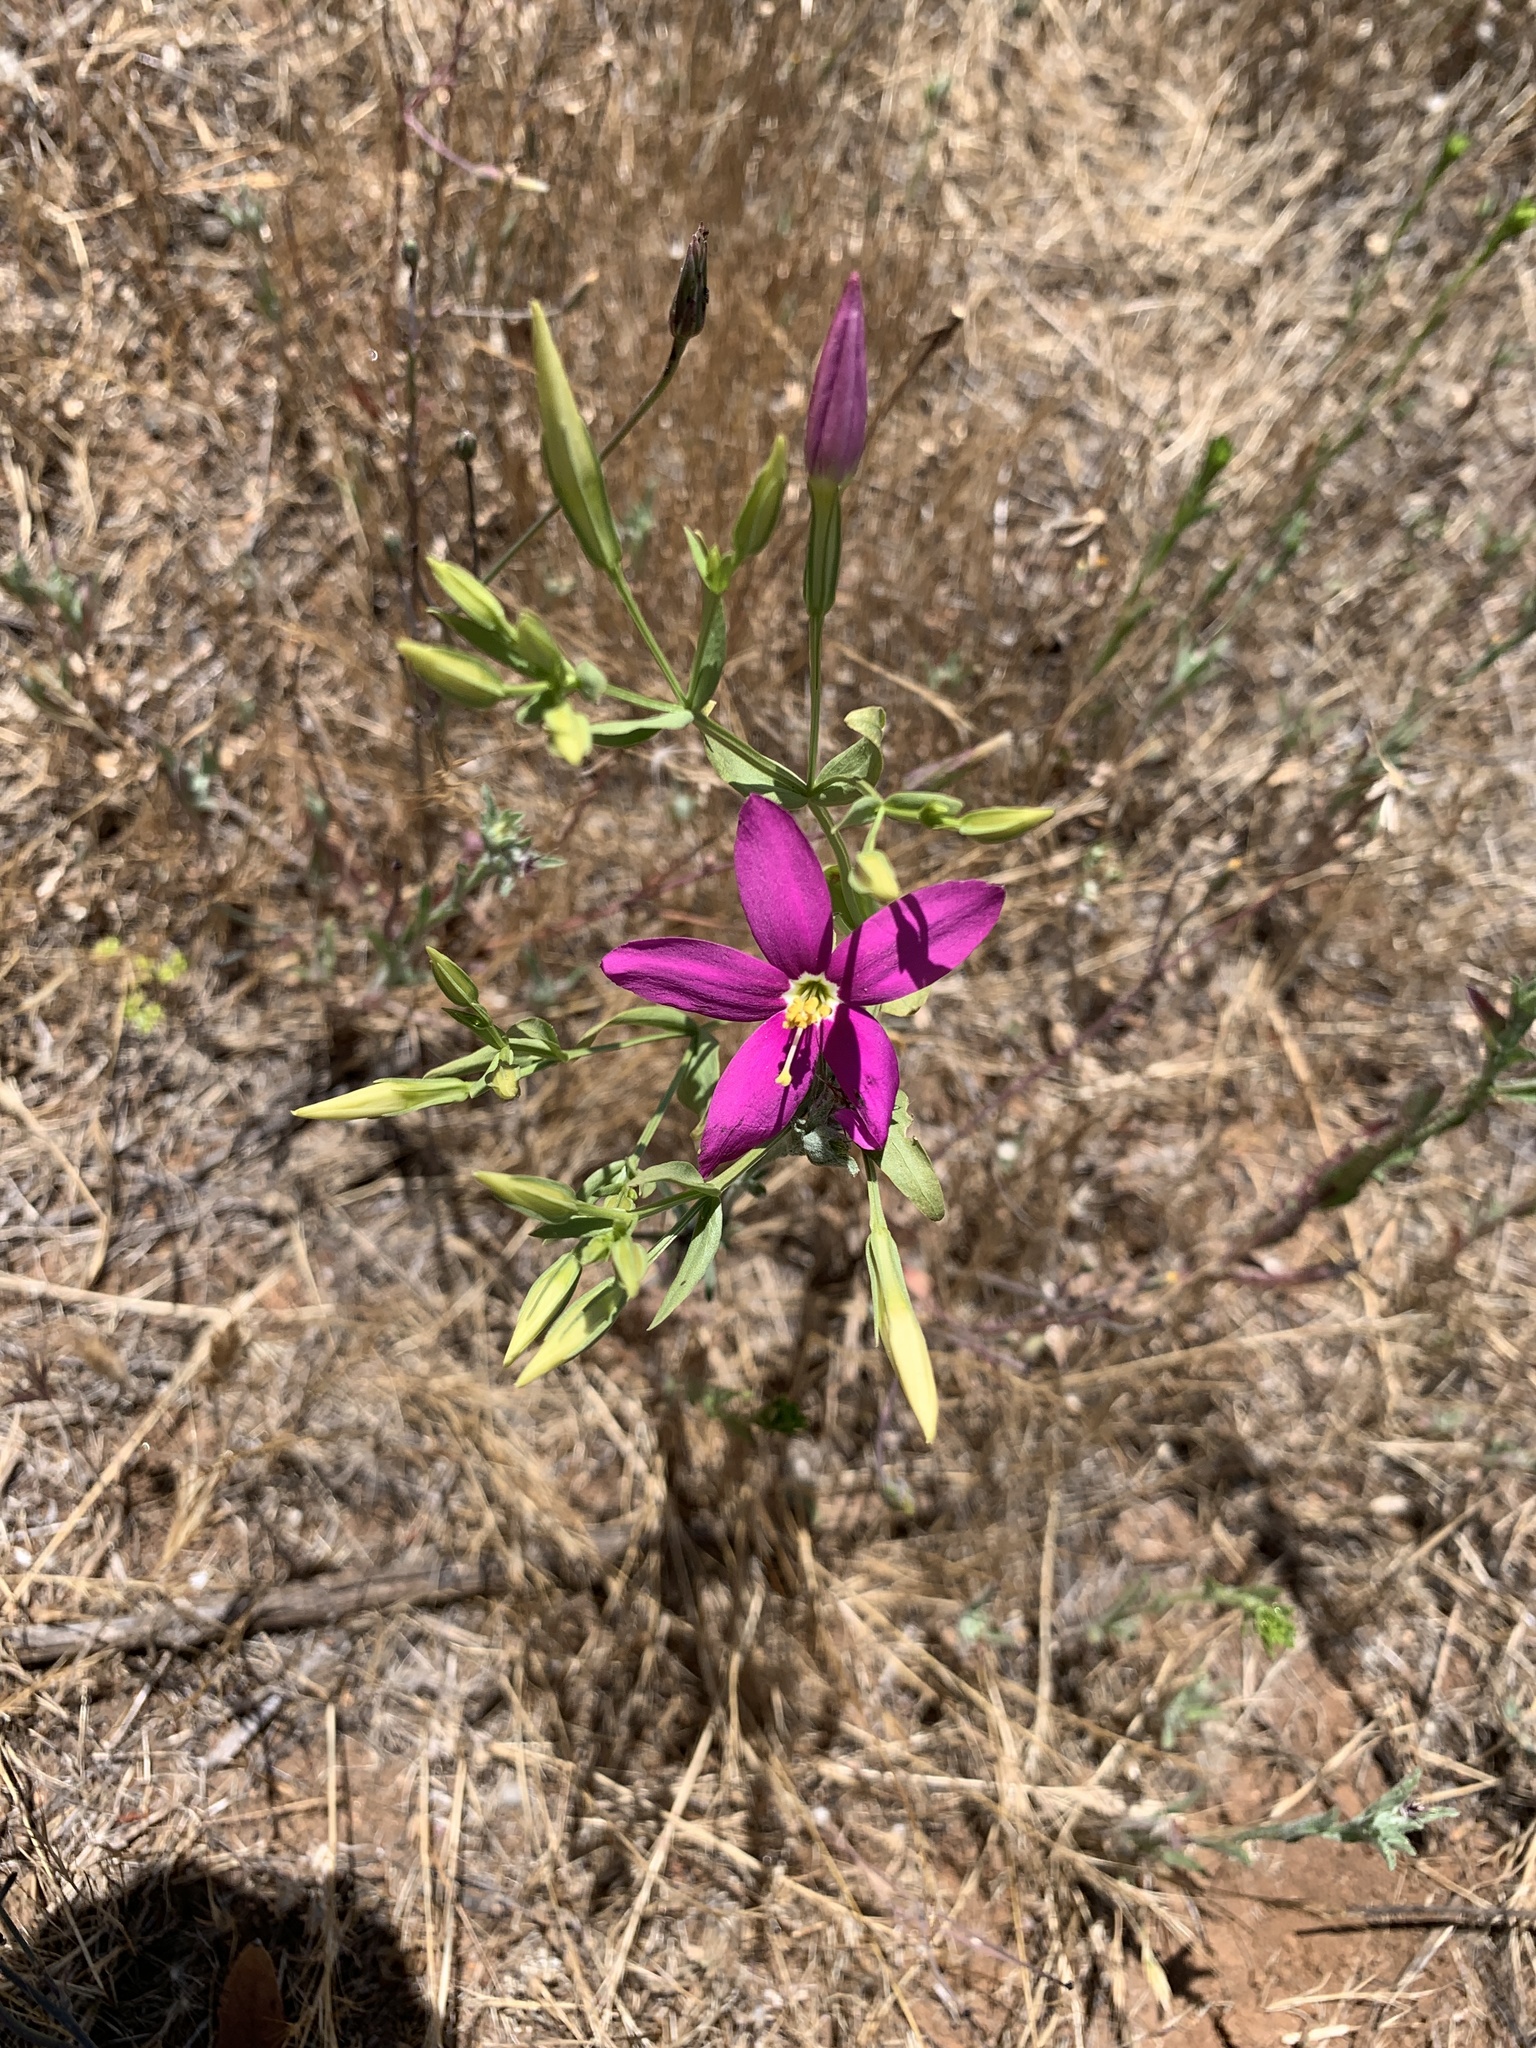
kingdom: Plantae
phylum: Tracheophyta
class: Magnoliopsida
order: Gentianales
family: Gentianaceae
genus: Zeltnera
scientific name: Zeltnera venusta
